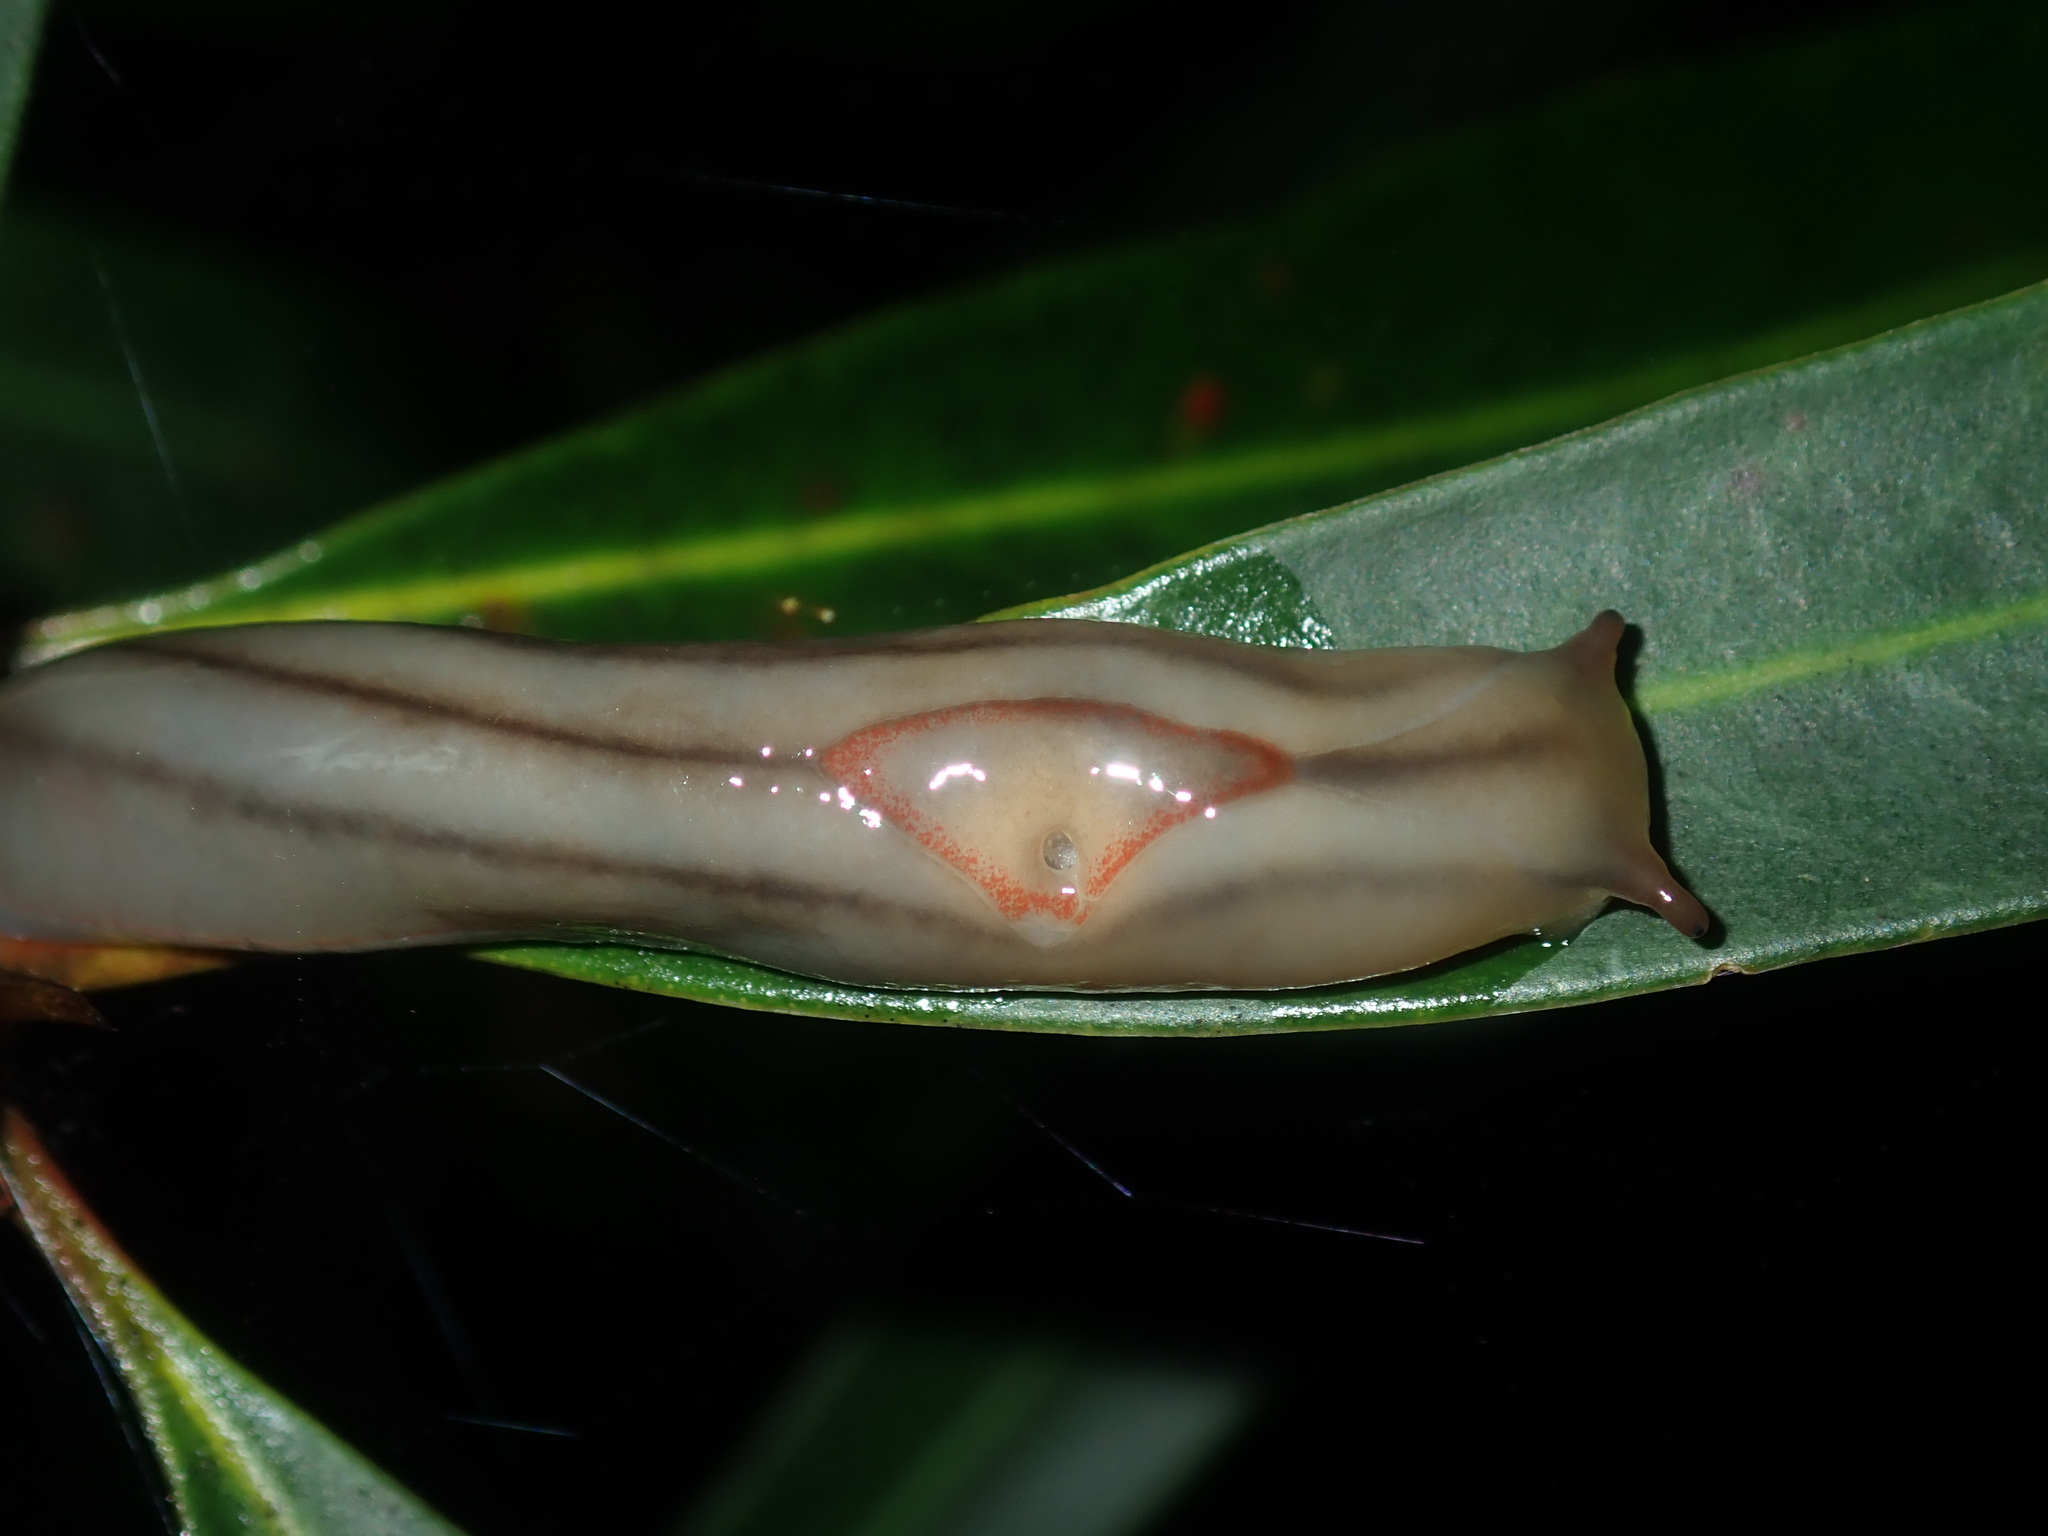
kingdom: Animalia
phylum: Mollusca
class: Gastropoda
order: Stylommatophora
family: Athoracophoridae
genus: Triboniophorus
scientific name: Triboniophorus graeffei
